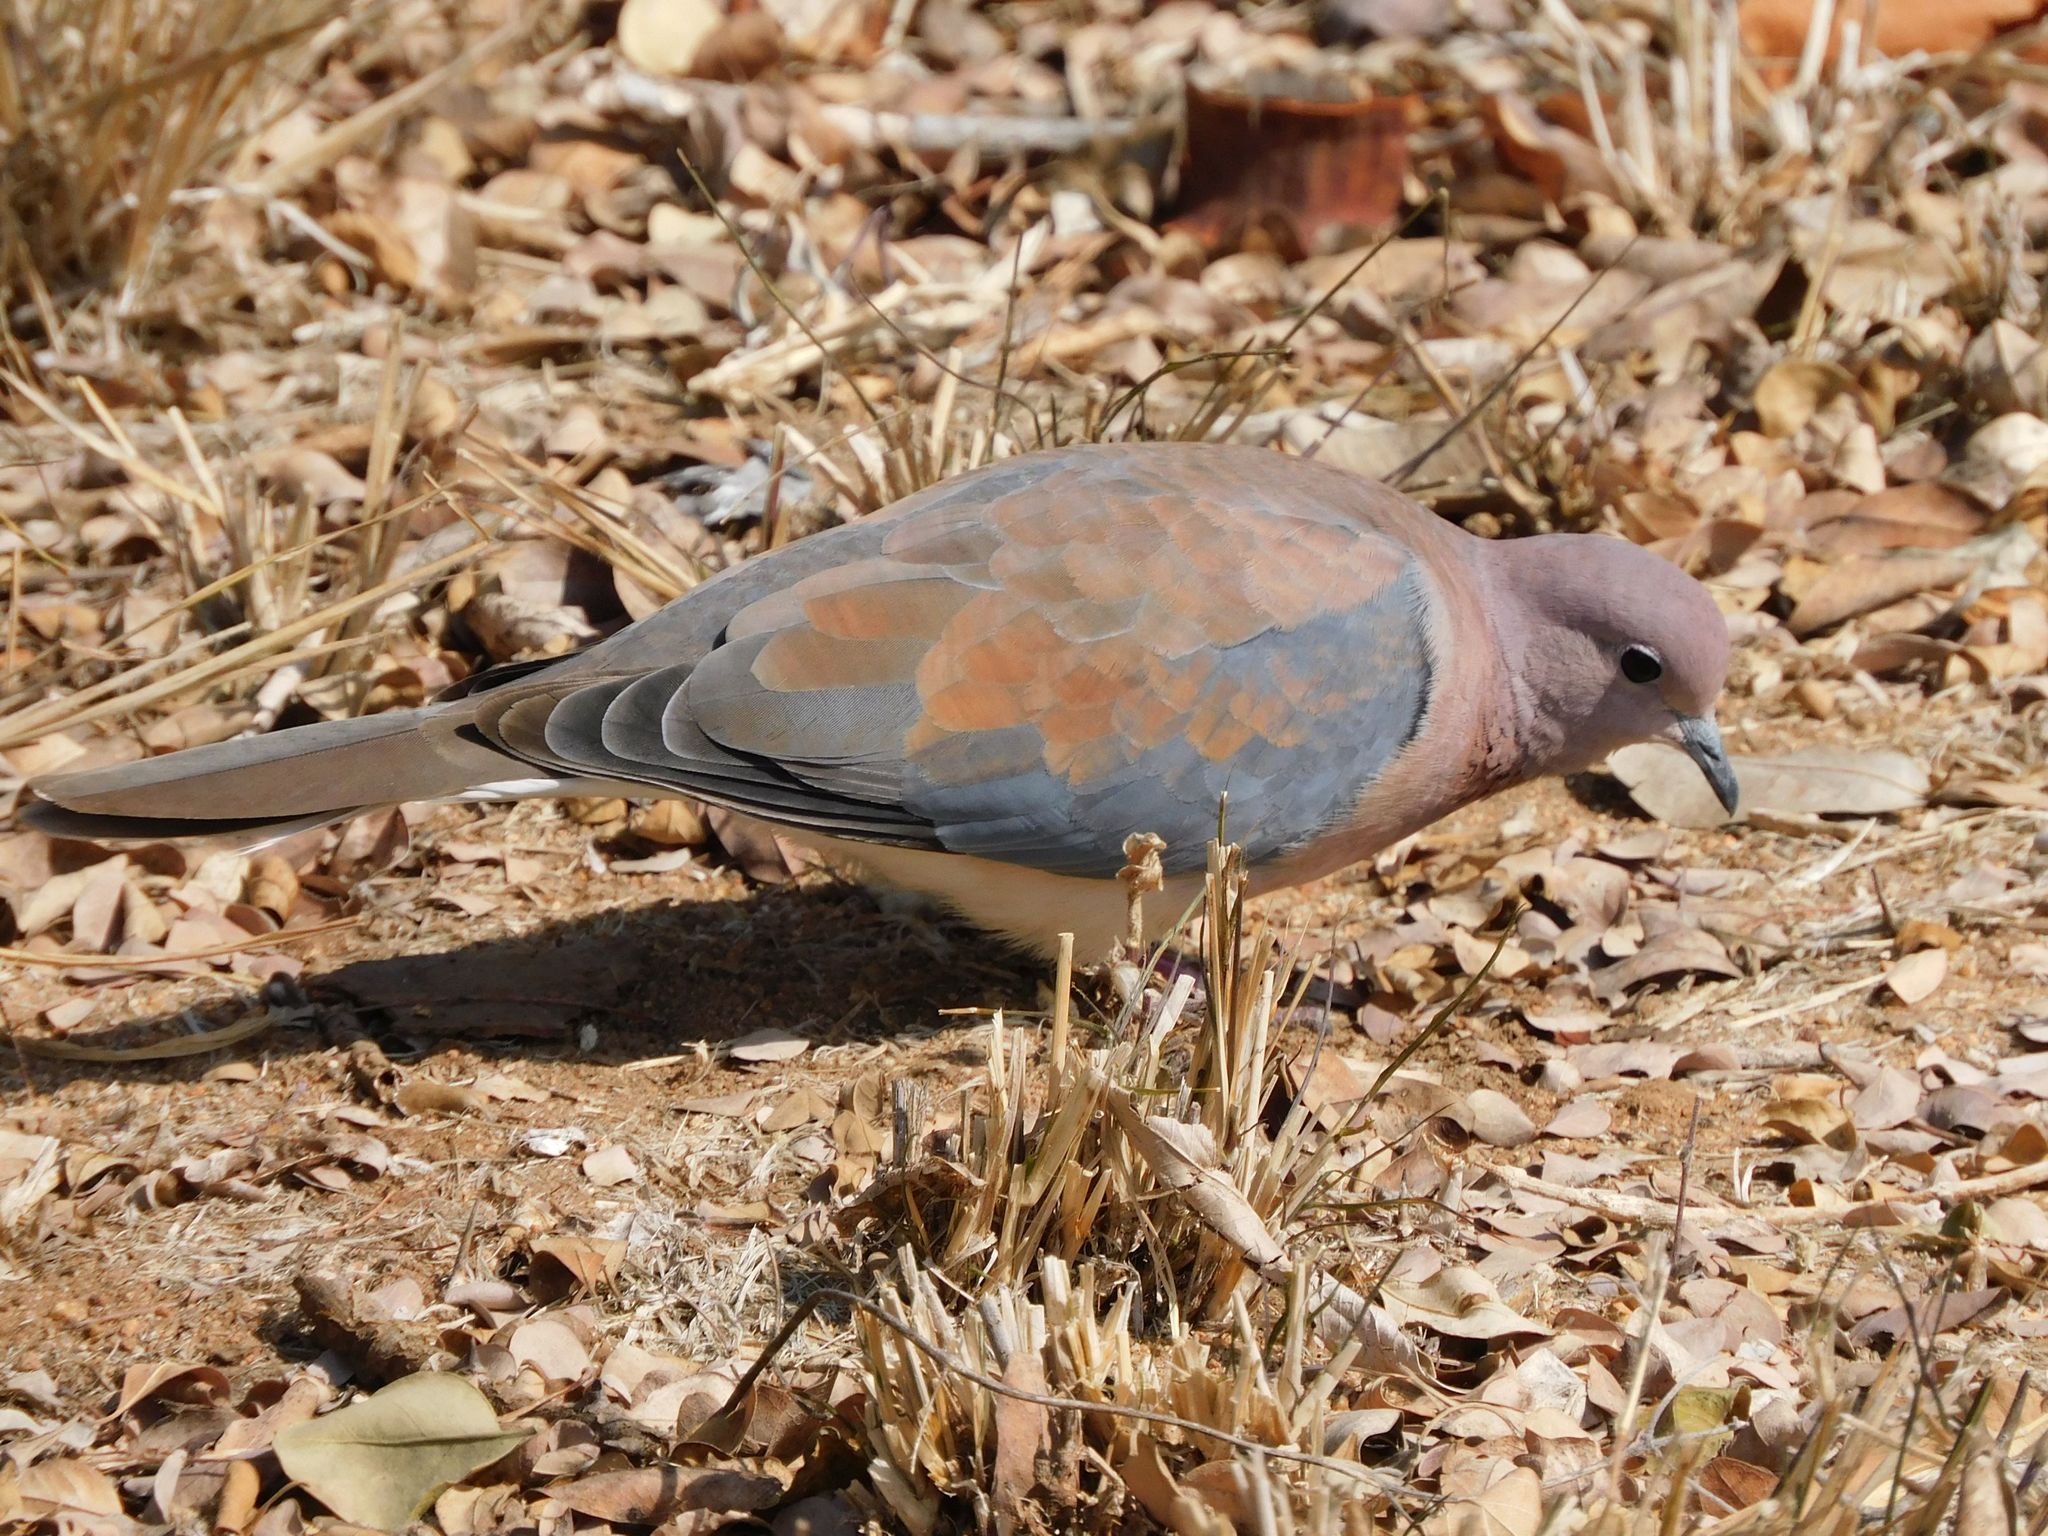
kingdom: Animalia
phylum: Chordata
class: Aves
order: Columbiformes
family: Columbidae
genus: Spilopelia
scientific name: Spilopelia senegalensis
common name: Laughing dove
